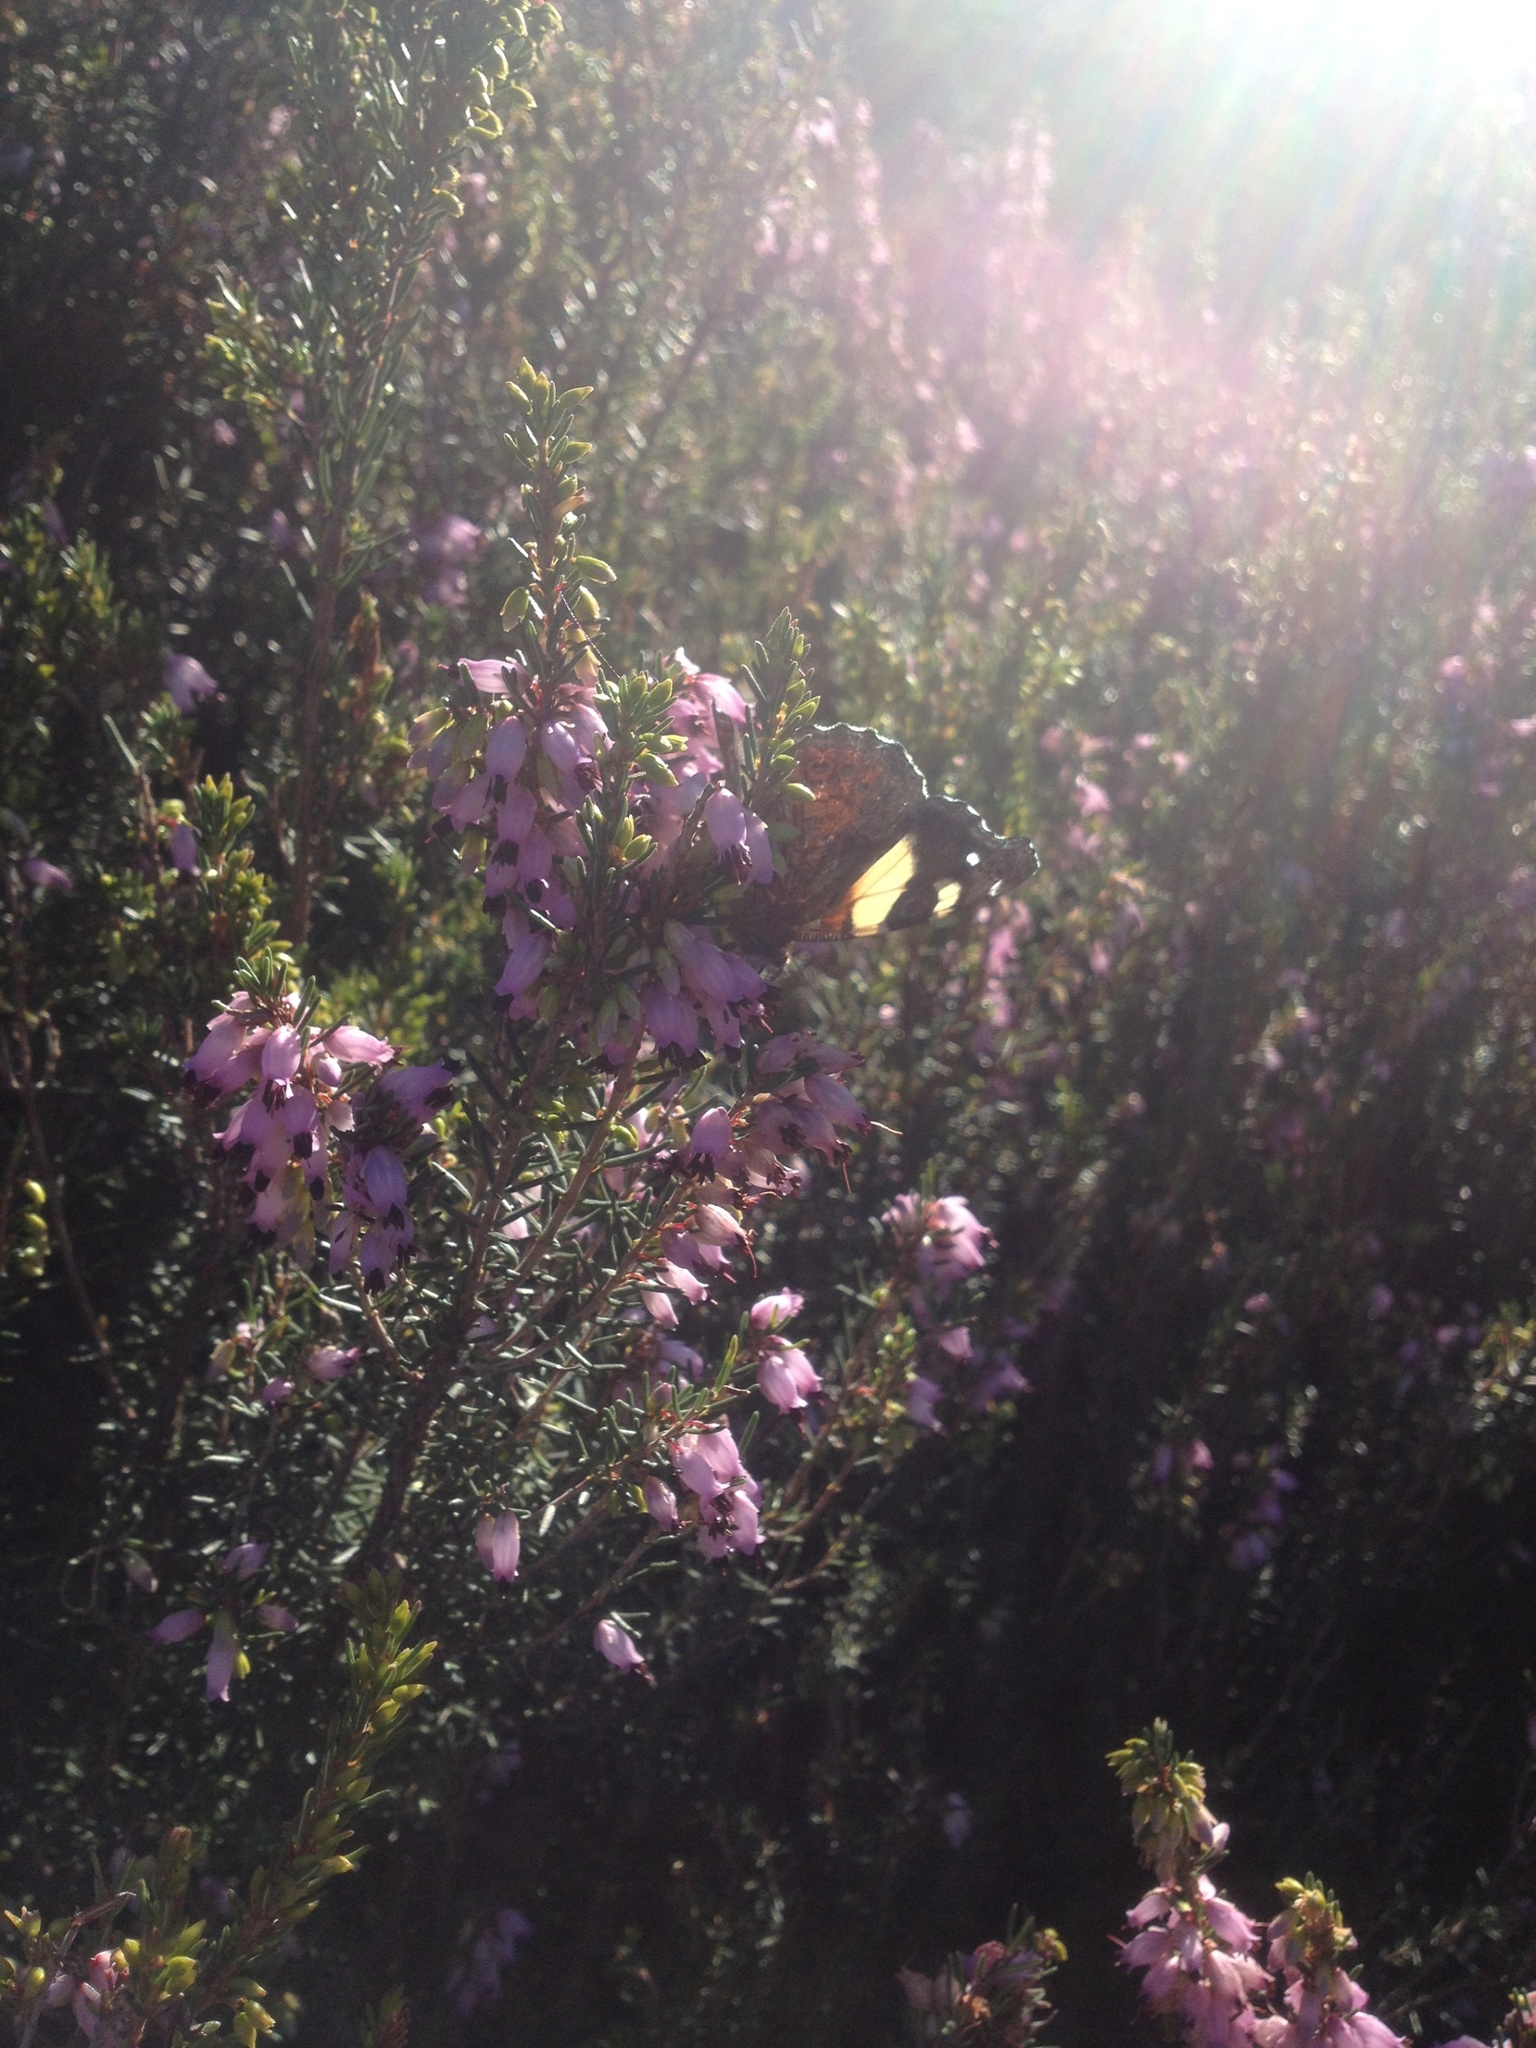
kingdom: Animalia
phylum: Arthropoda
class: Insecta
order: Lepidoptera
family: Nymphalidae
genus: Vanessa
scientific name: Vanessa itea
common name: Yellow admiral
